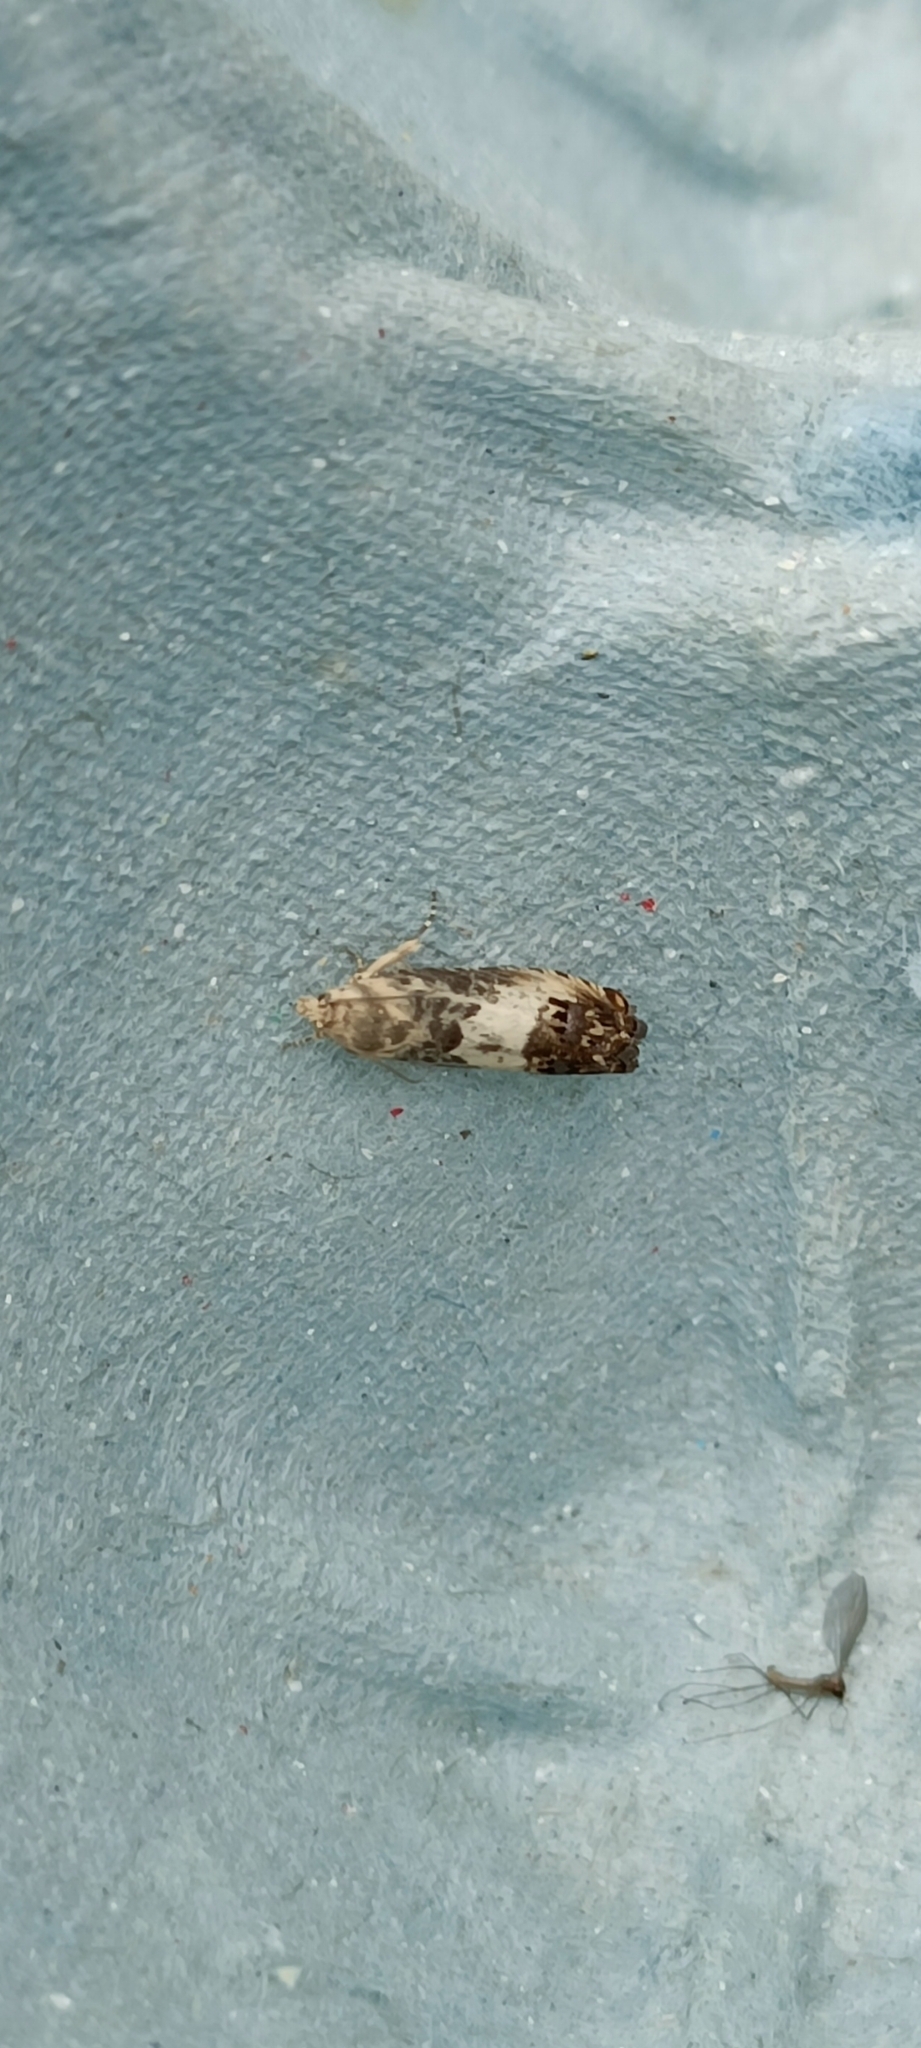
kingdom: Animalia
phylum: Arthropoda
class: Insecta
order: Lepidoptera
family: Tortricidae
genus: Pammene
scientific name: Pammene fasciana
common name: Acorn piercer
